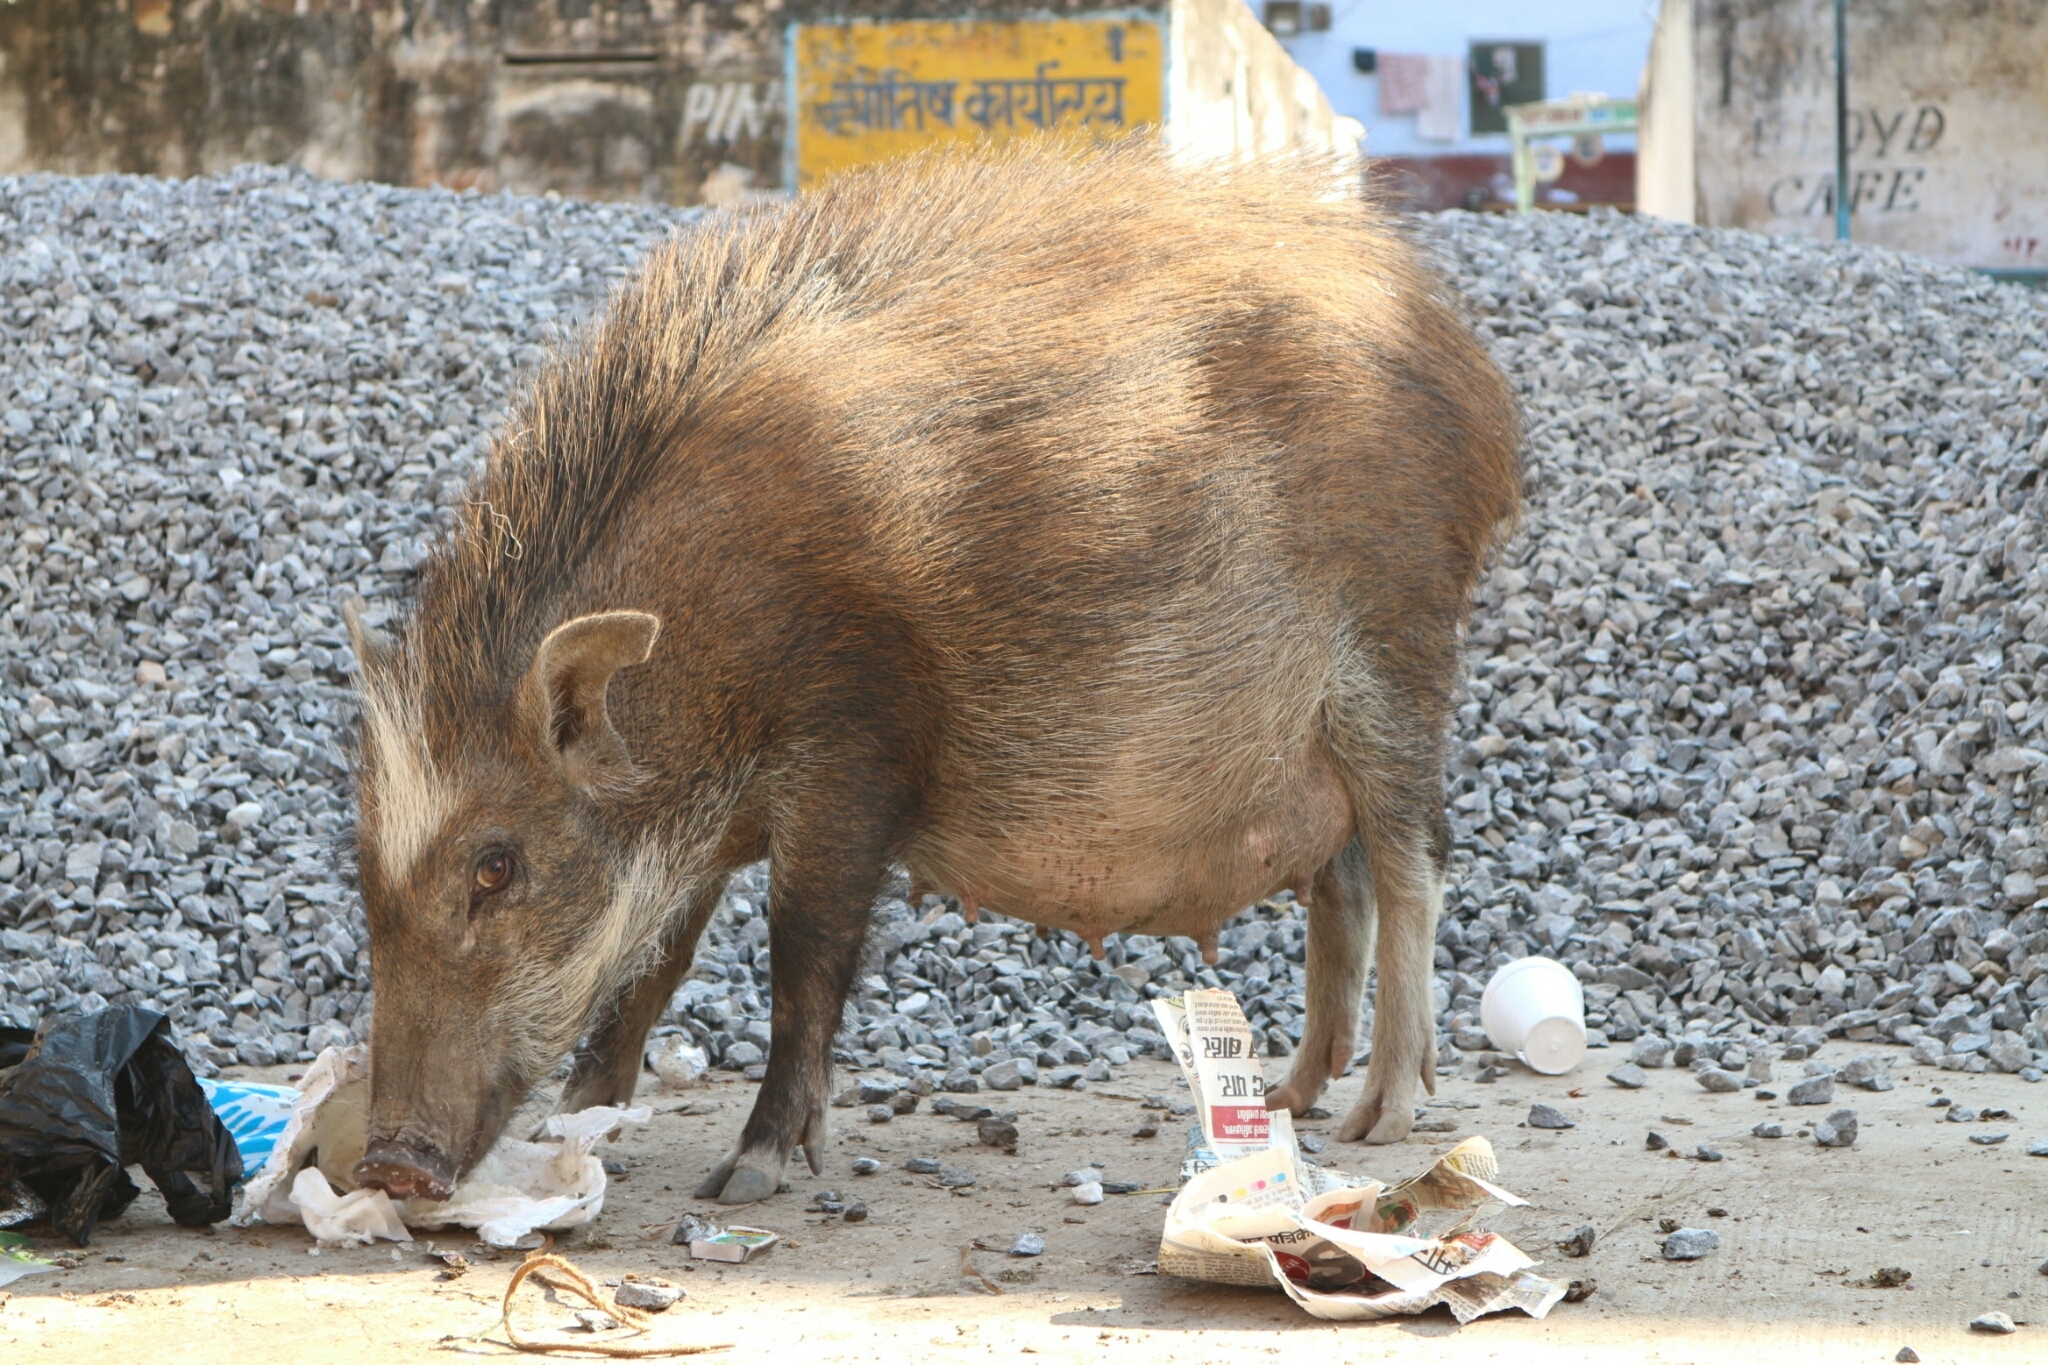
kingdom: Animalia
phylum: Chordata
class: Mammalia
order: Artiodactyla
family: Suidae
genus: Sus
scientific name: Sus scrofa
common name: Wild boar
